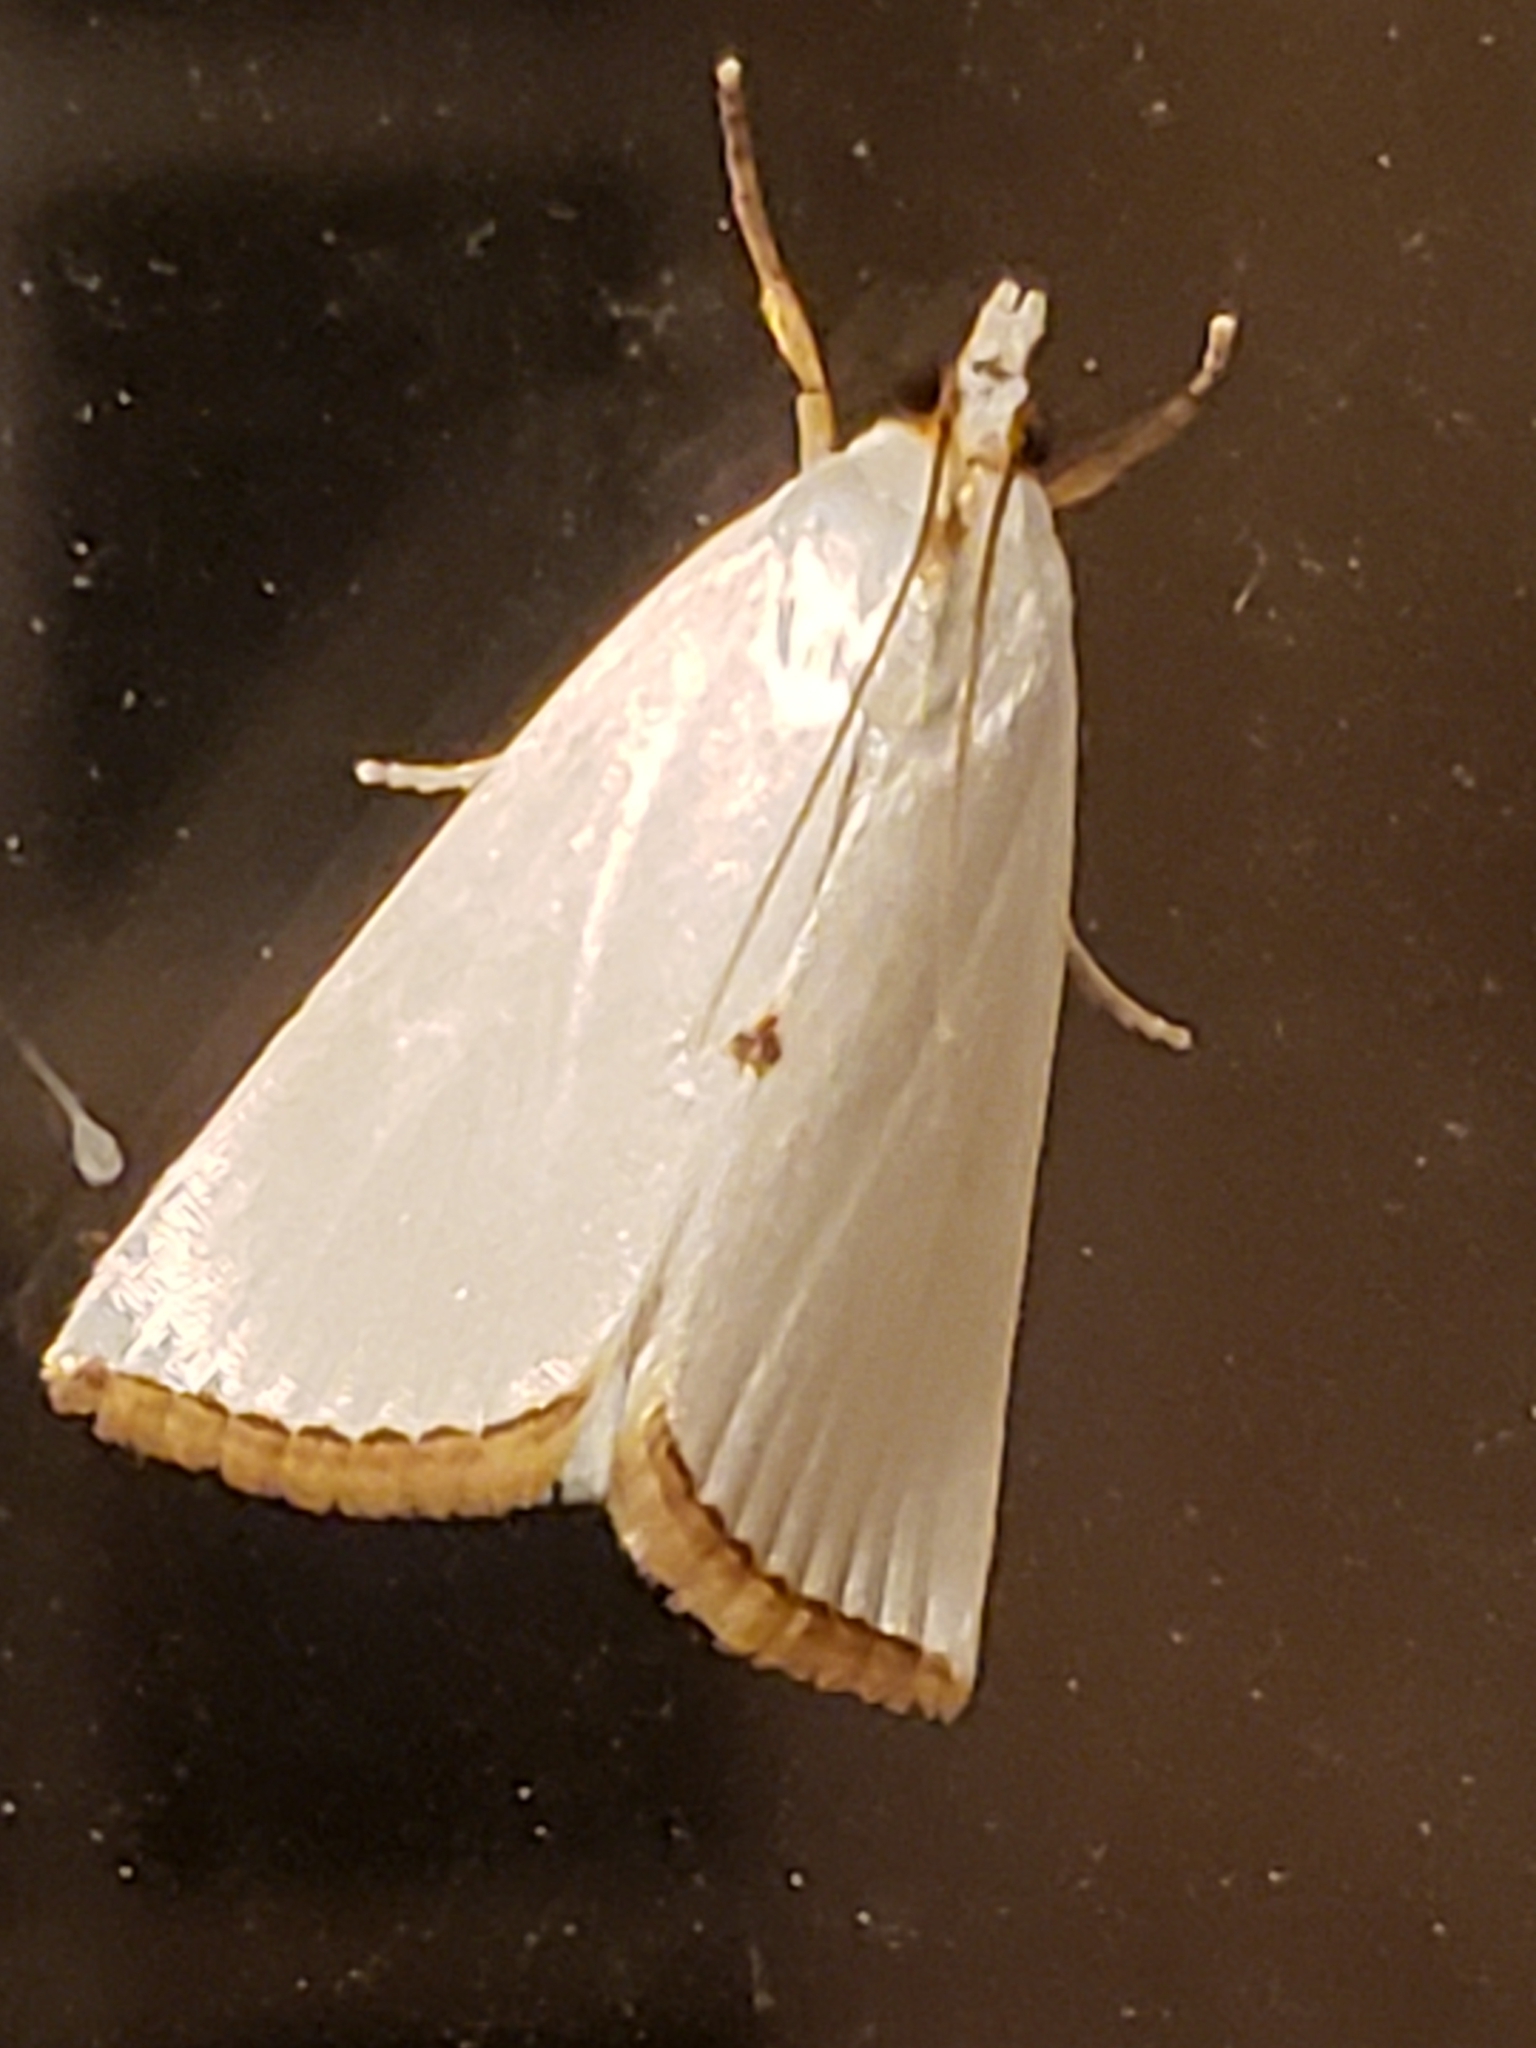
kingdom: Animalia
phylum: Arthropoda
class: Insecta
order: Lepidoptera
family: Crambidae
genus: Argyria
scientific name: Argyria nivalis
